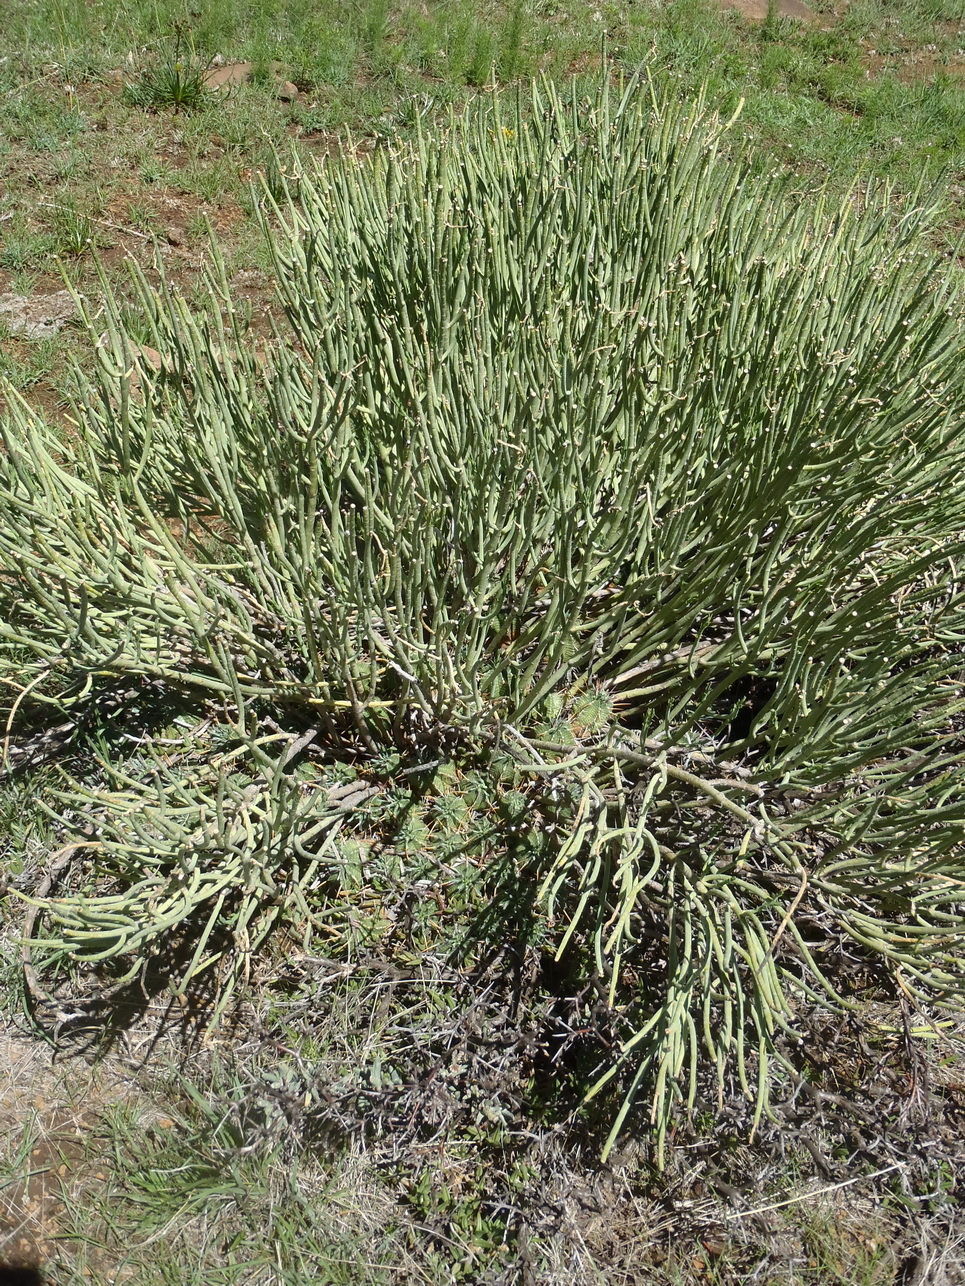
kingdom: Plantae
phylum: Tracheophyta
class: Magnoliopsida
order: Malpighiales
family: Euphorbiaceae
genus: Euphorbia
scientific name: Euphorbia mauritanica
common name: Jackal's-food
